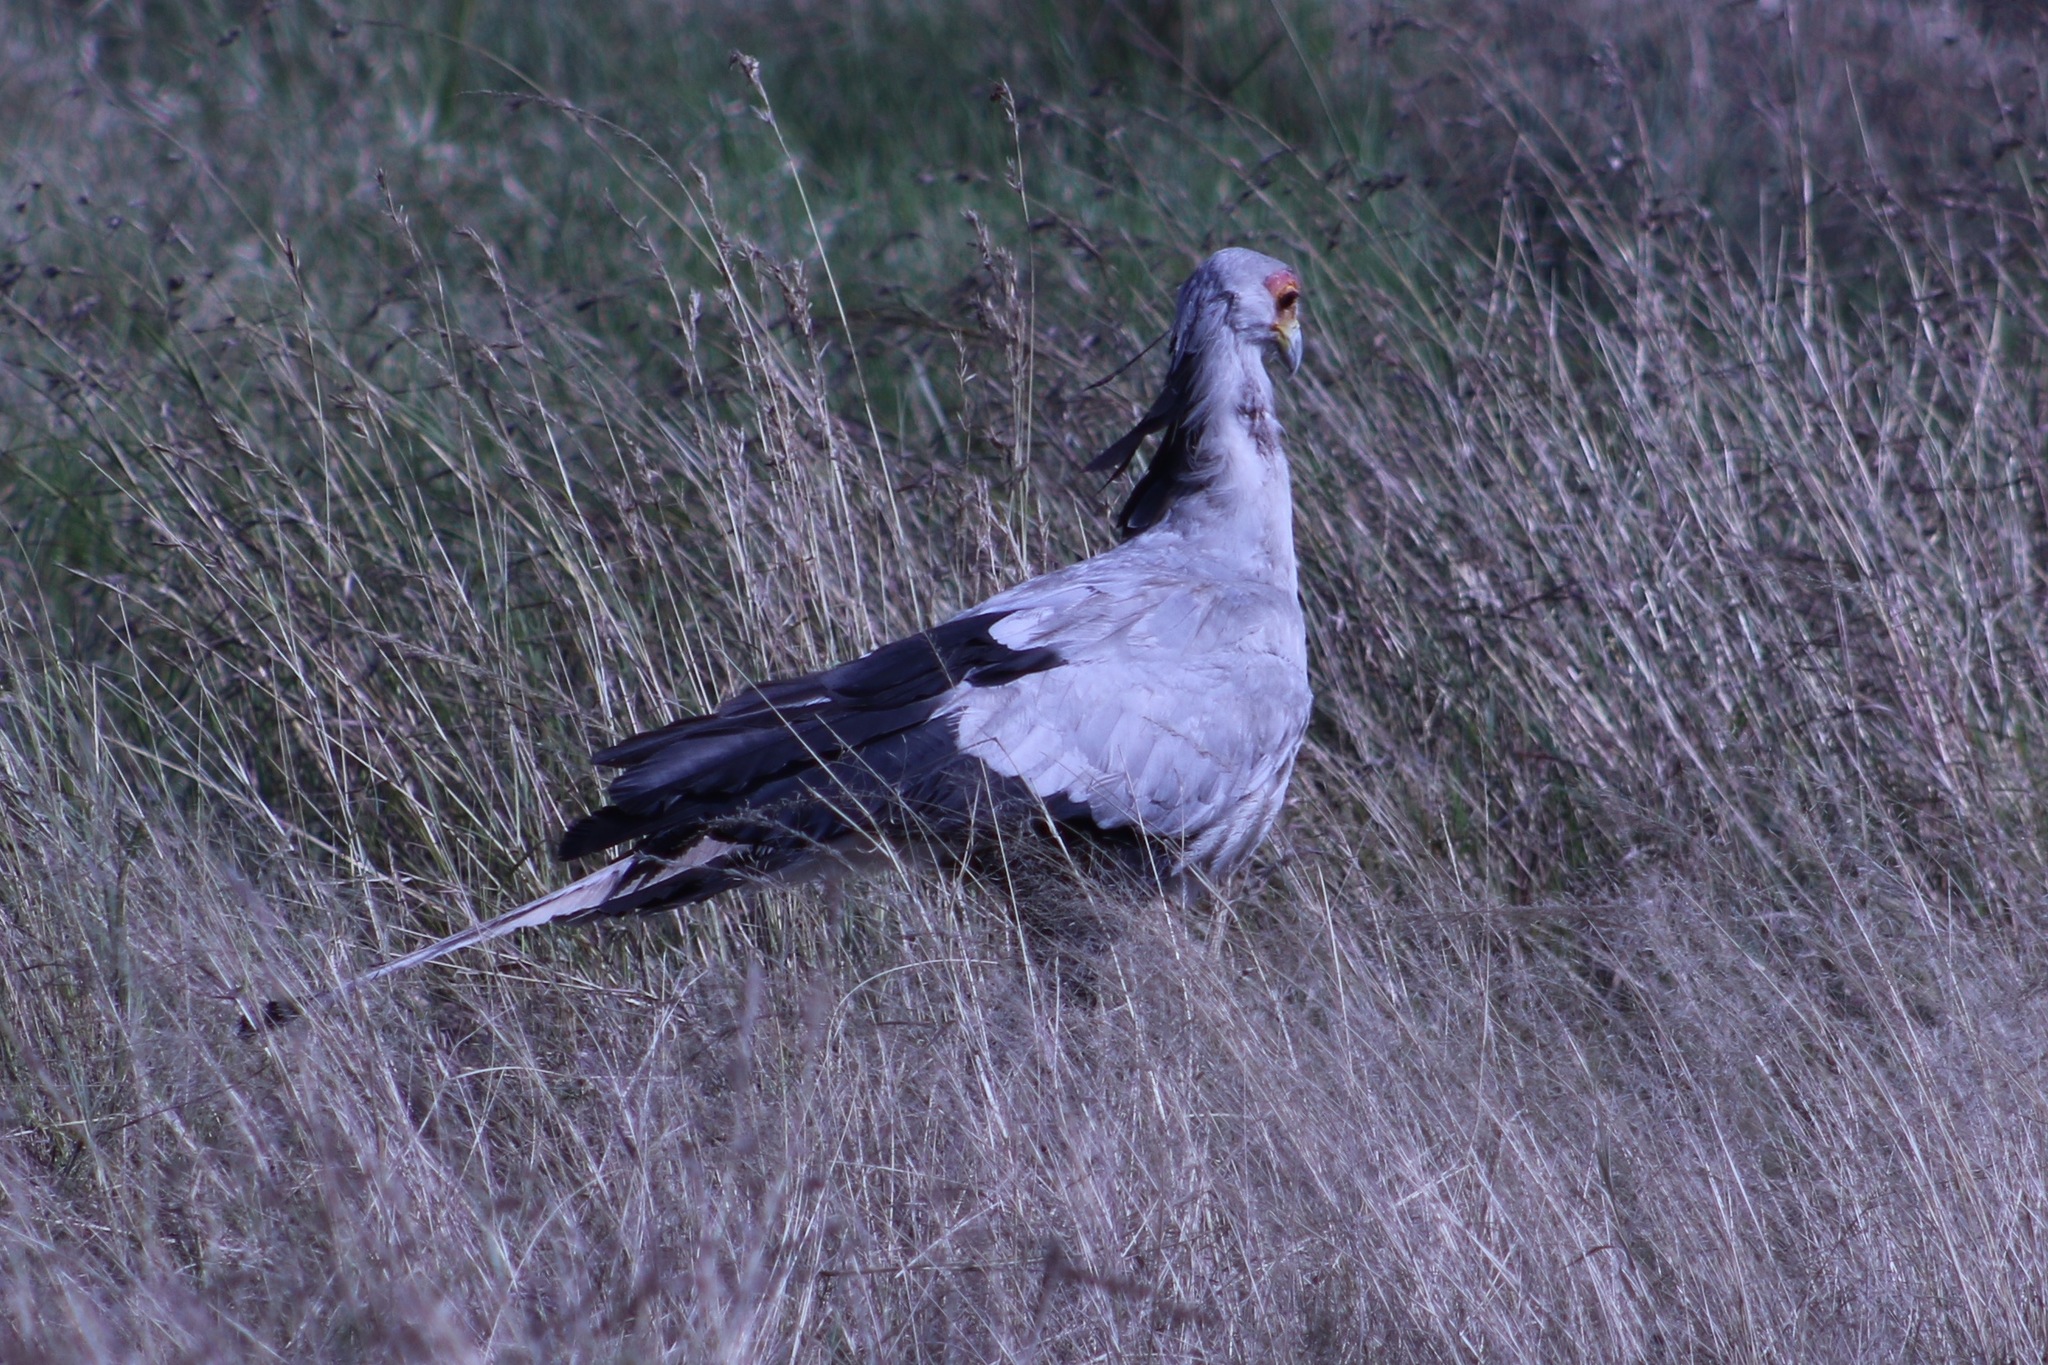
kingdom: Animalia
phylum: Chordata
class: Aves
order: Accipitriformes
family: Sagittariidae
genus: Sagittarius
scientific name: Sagittarius serpentarius
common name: Secretarybird
